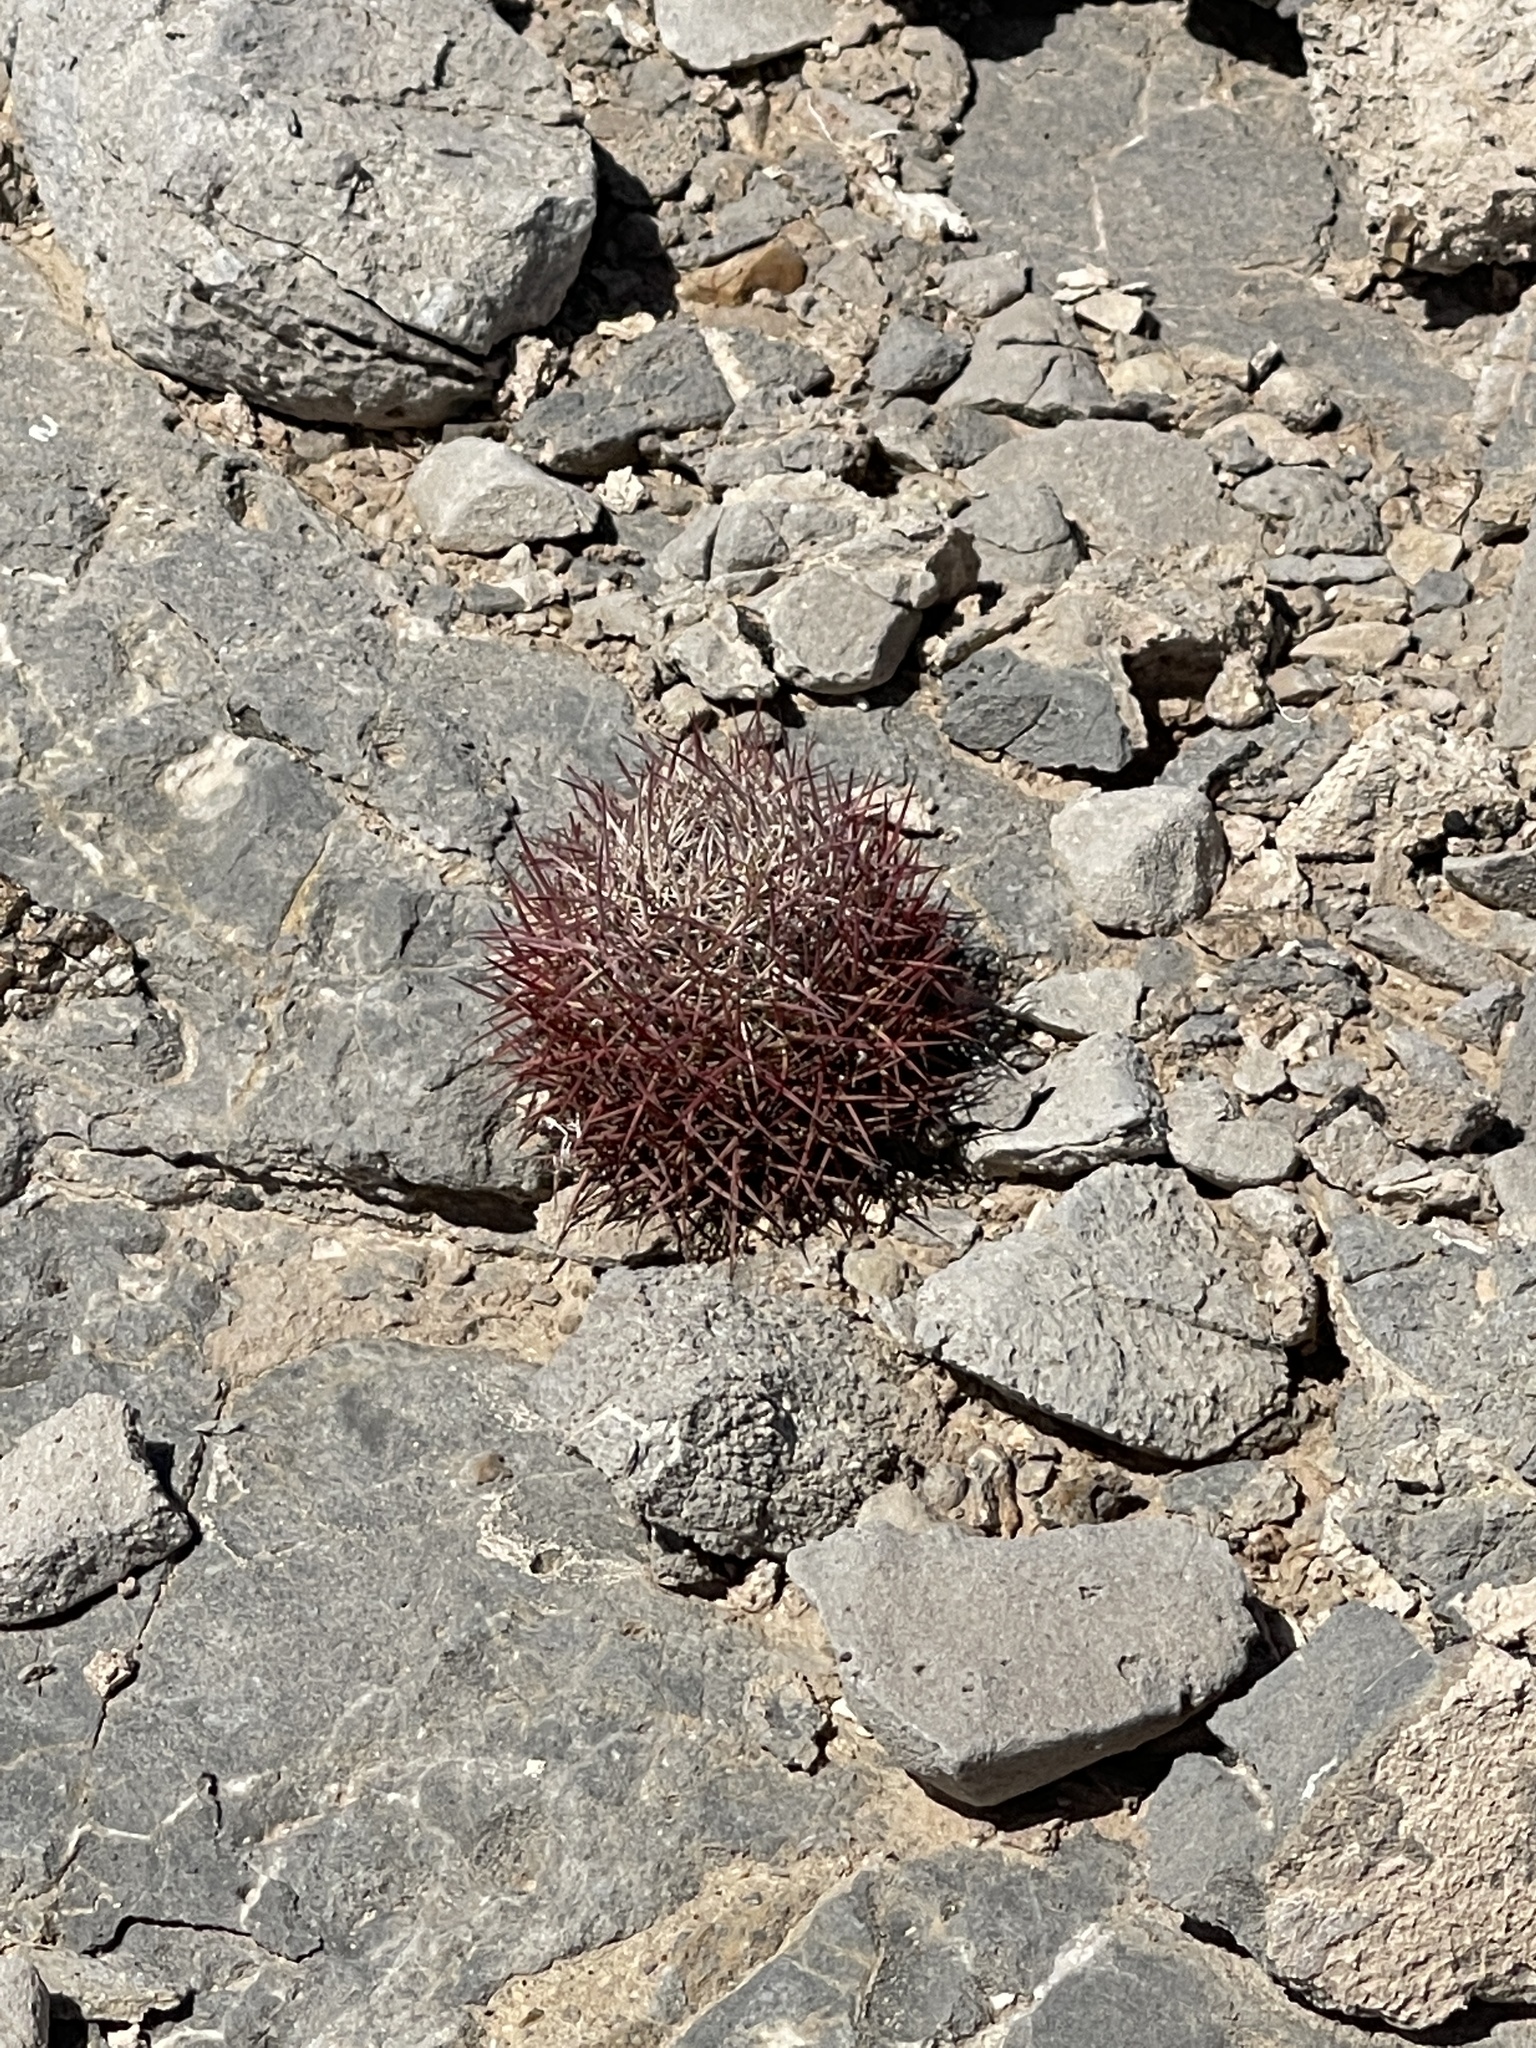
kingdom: Plantae
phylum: Tracheophyta
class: Magnoliopsida
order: Caryophyllales
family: Cactaceae
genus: Sclerocactus
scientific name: Sclerocactus johnsonii
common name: Eight-spine fishhook cactus
